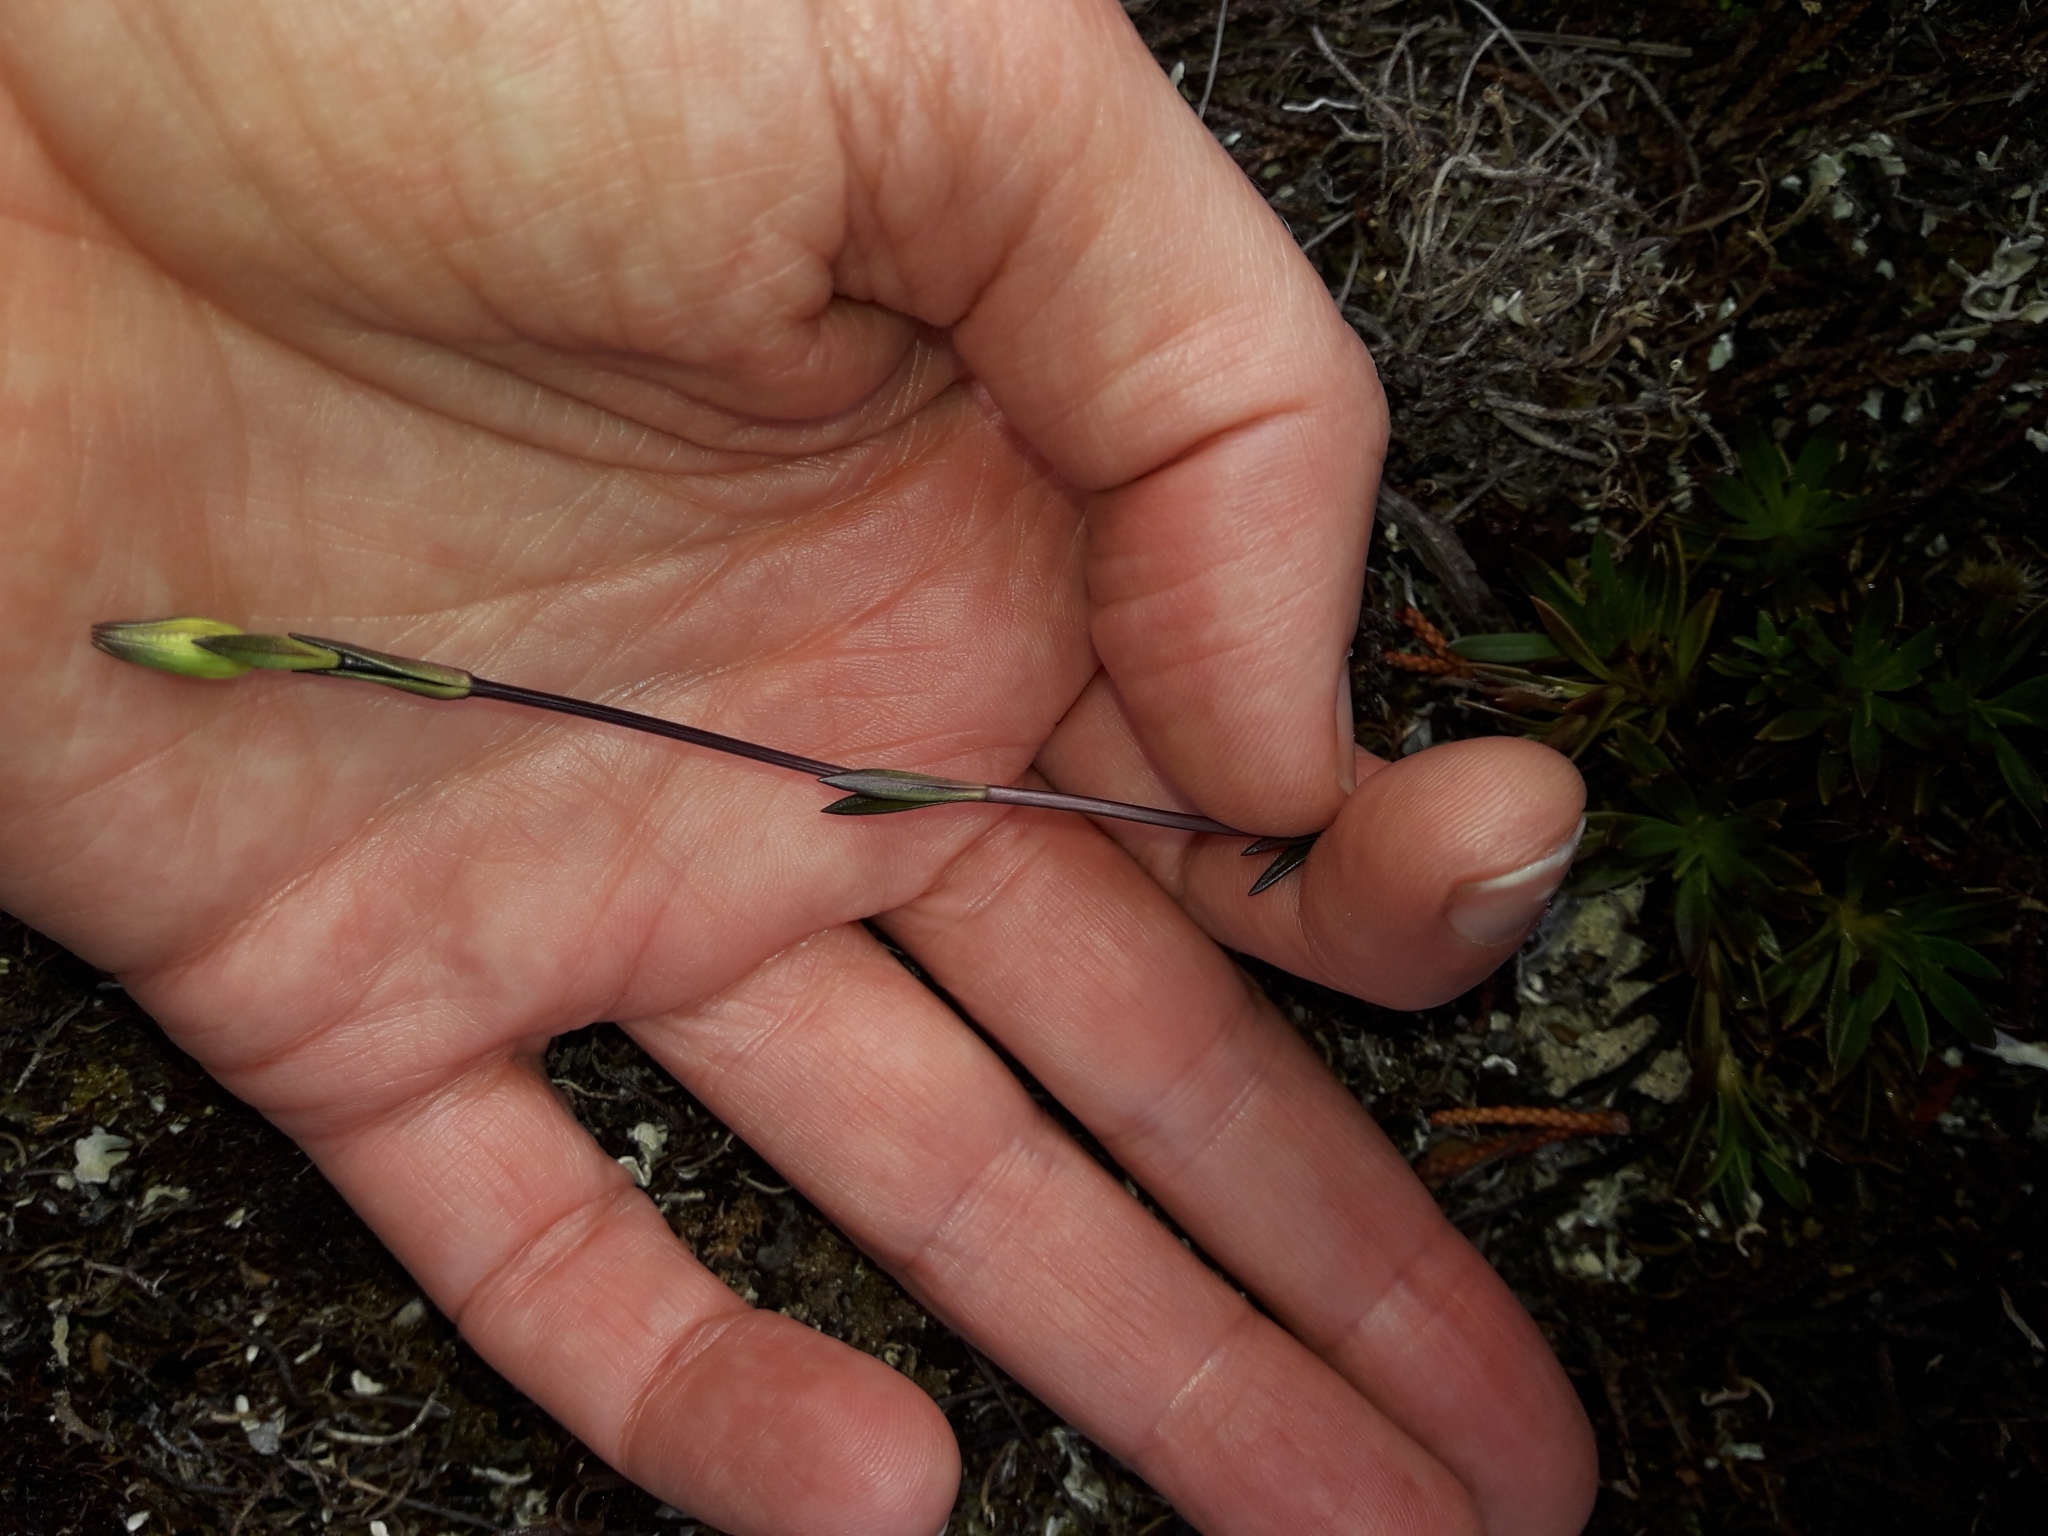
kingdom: Plantae
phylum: Tracheophyta
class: Magnoliopsida
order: Gentianales
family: Gentianaceae
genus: Gentianella
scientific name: Gentianella vernicosa
